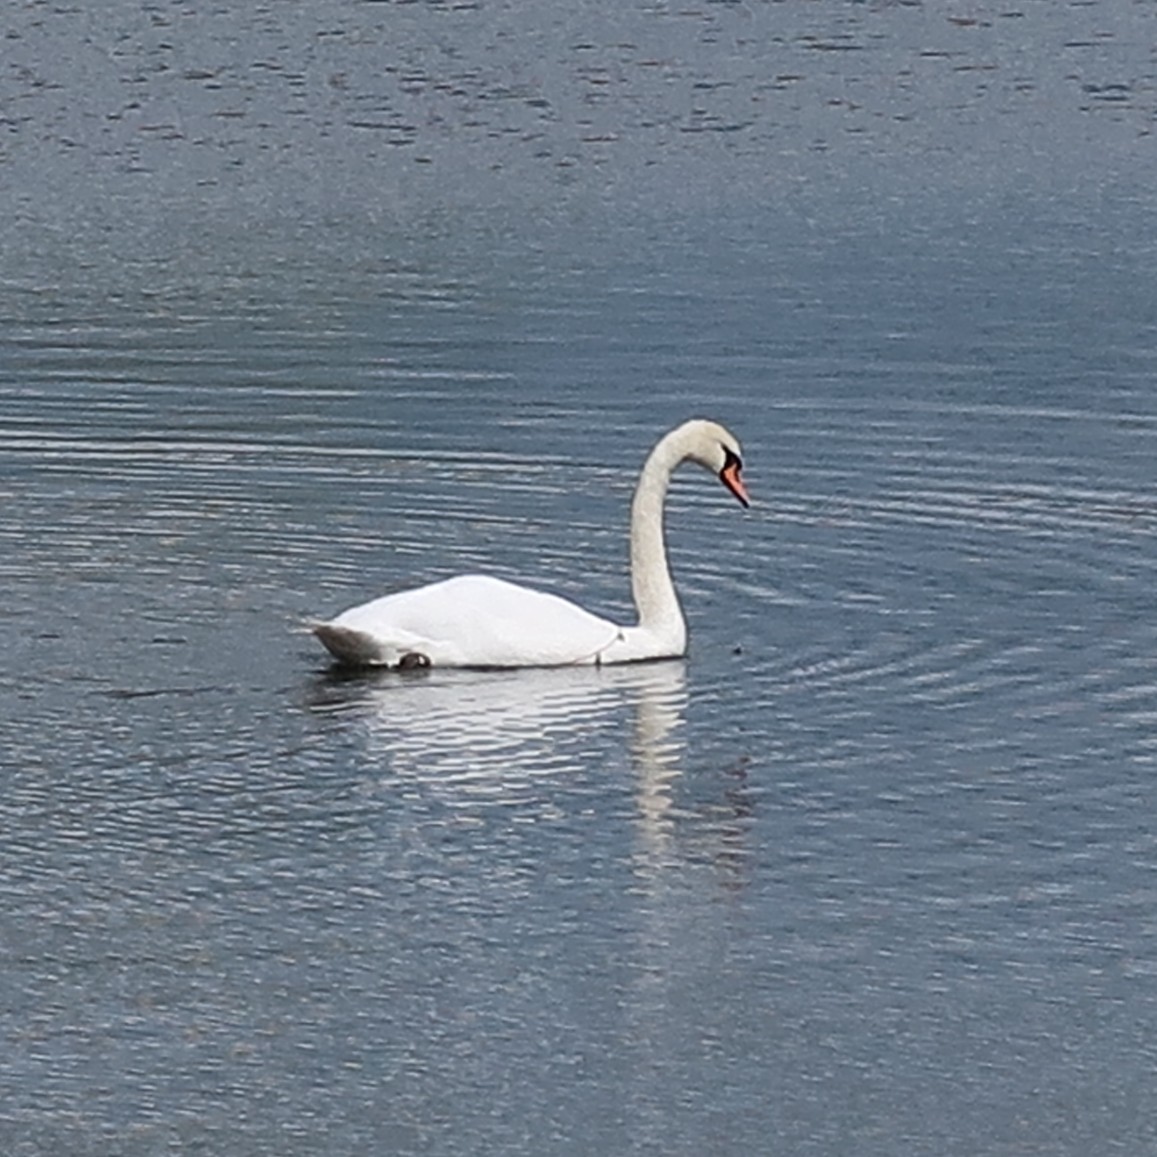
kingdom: Animalia
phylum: Chordata
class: Aves
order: Anseriformes
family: Anatidae
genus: Cygnus
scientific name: Cygnus olor
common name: Mute swan
